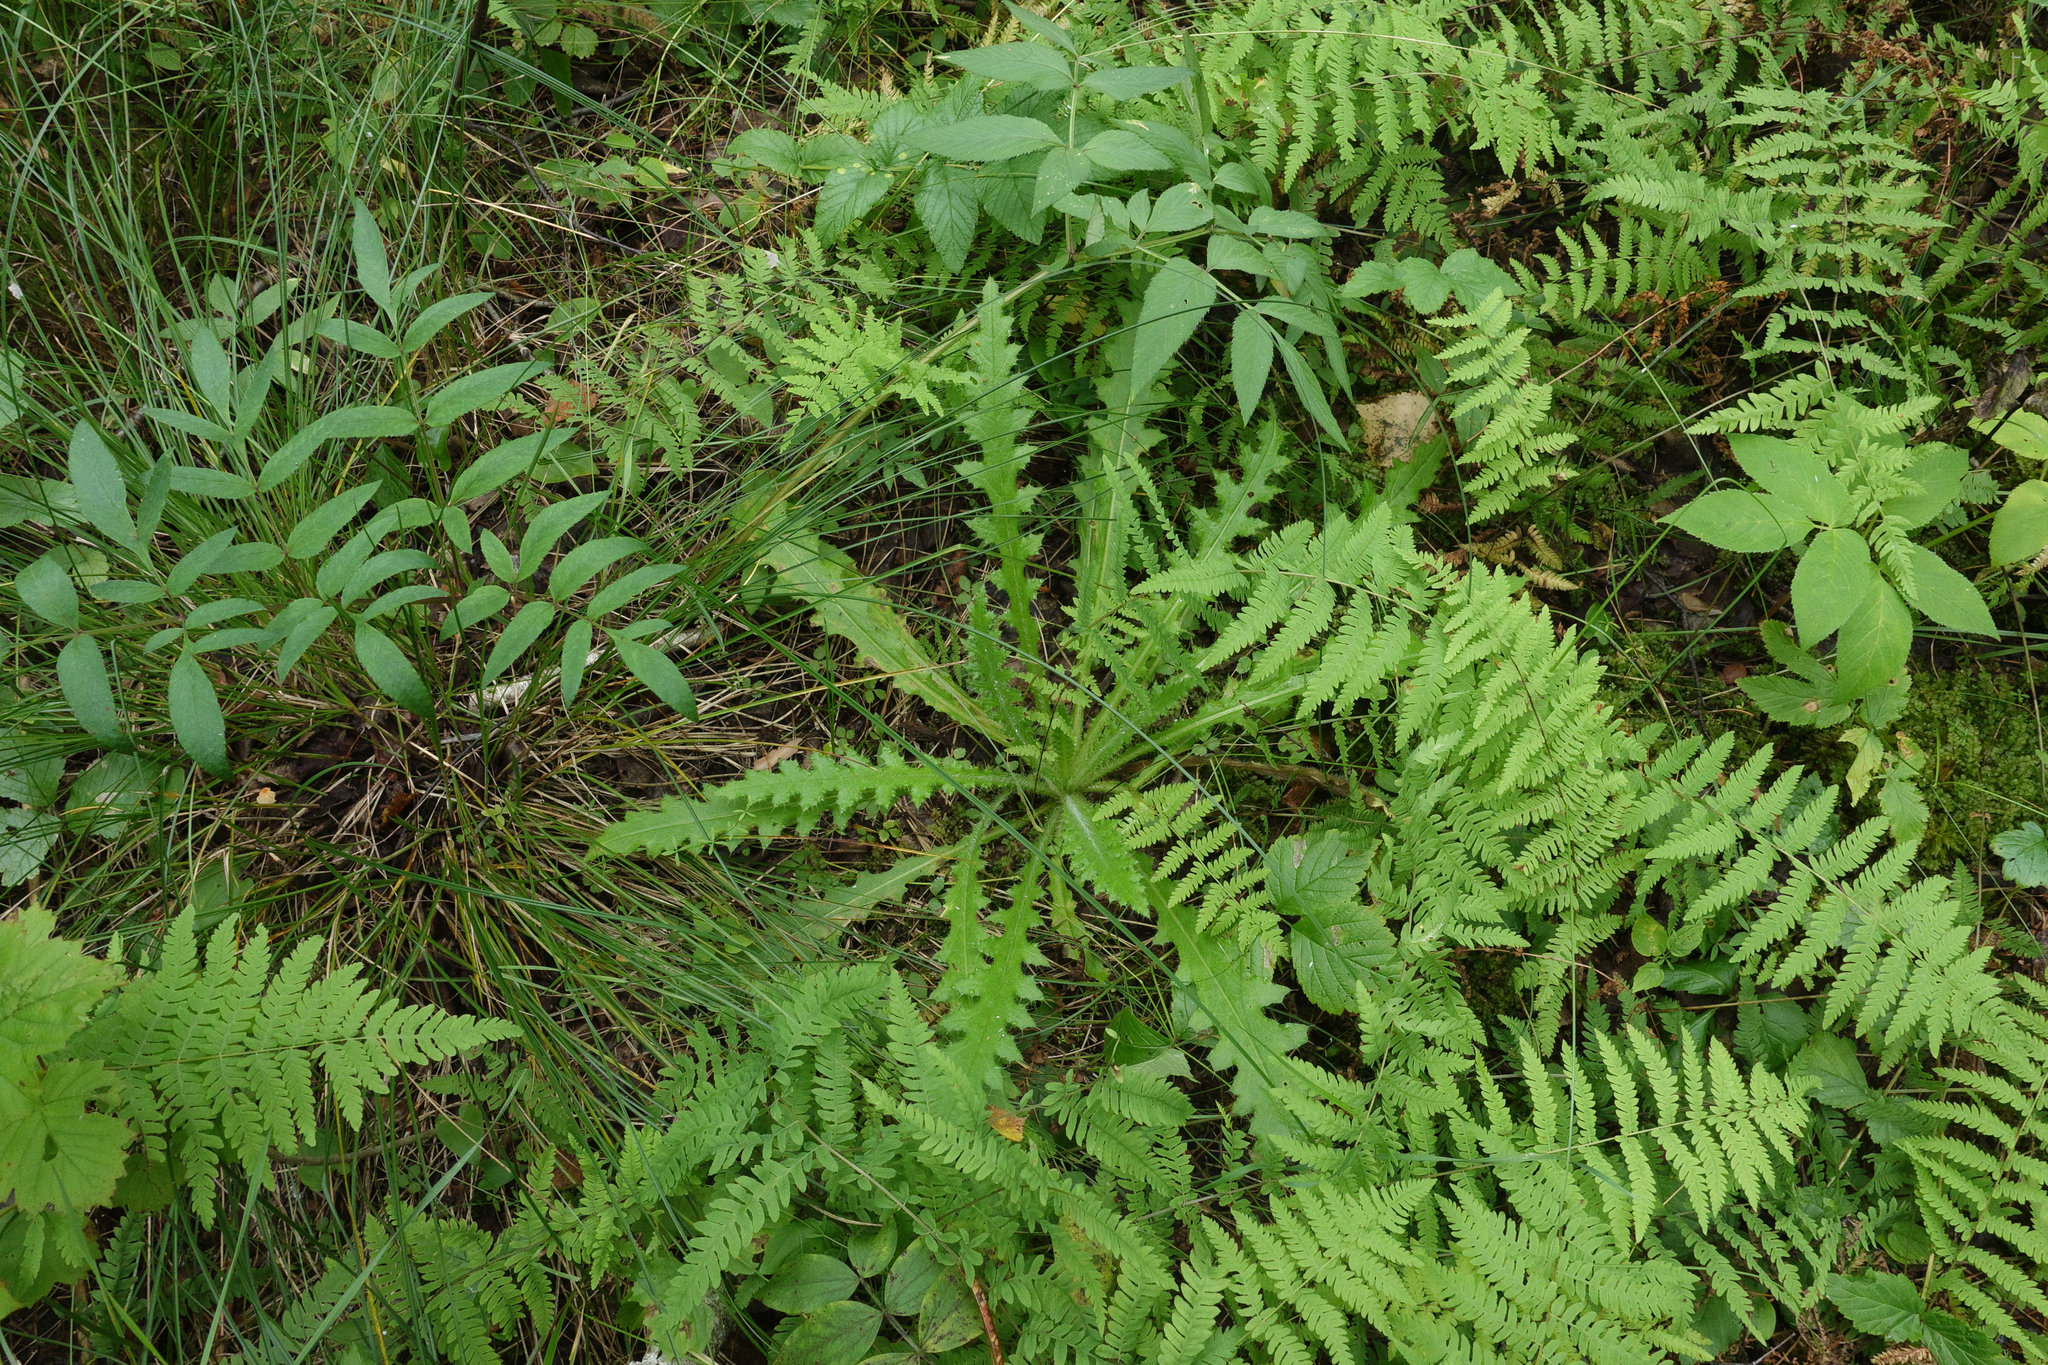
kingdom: Plantae
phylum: Tracheophyta
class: Magnoliopsida
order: Asterales
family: Asteraceae
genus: Cirsium
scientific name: Cirsium palustre
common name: Marsh thistle
